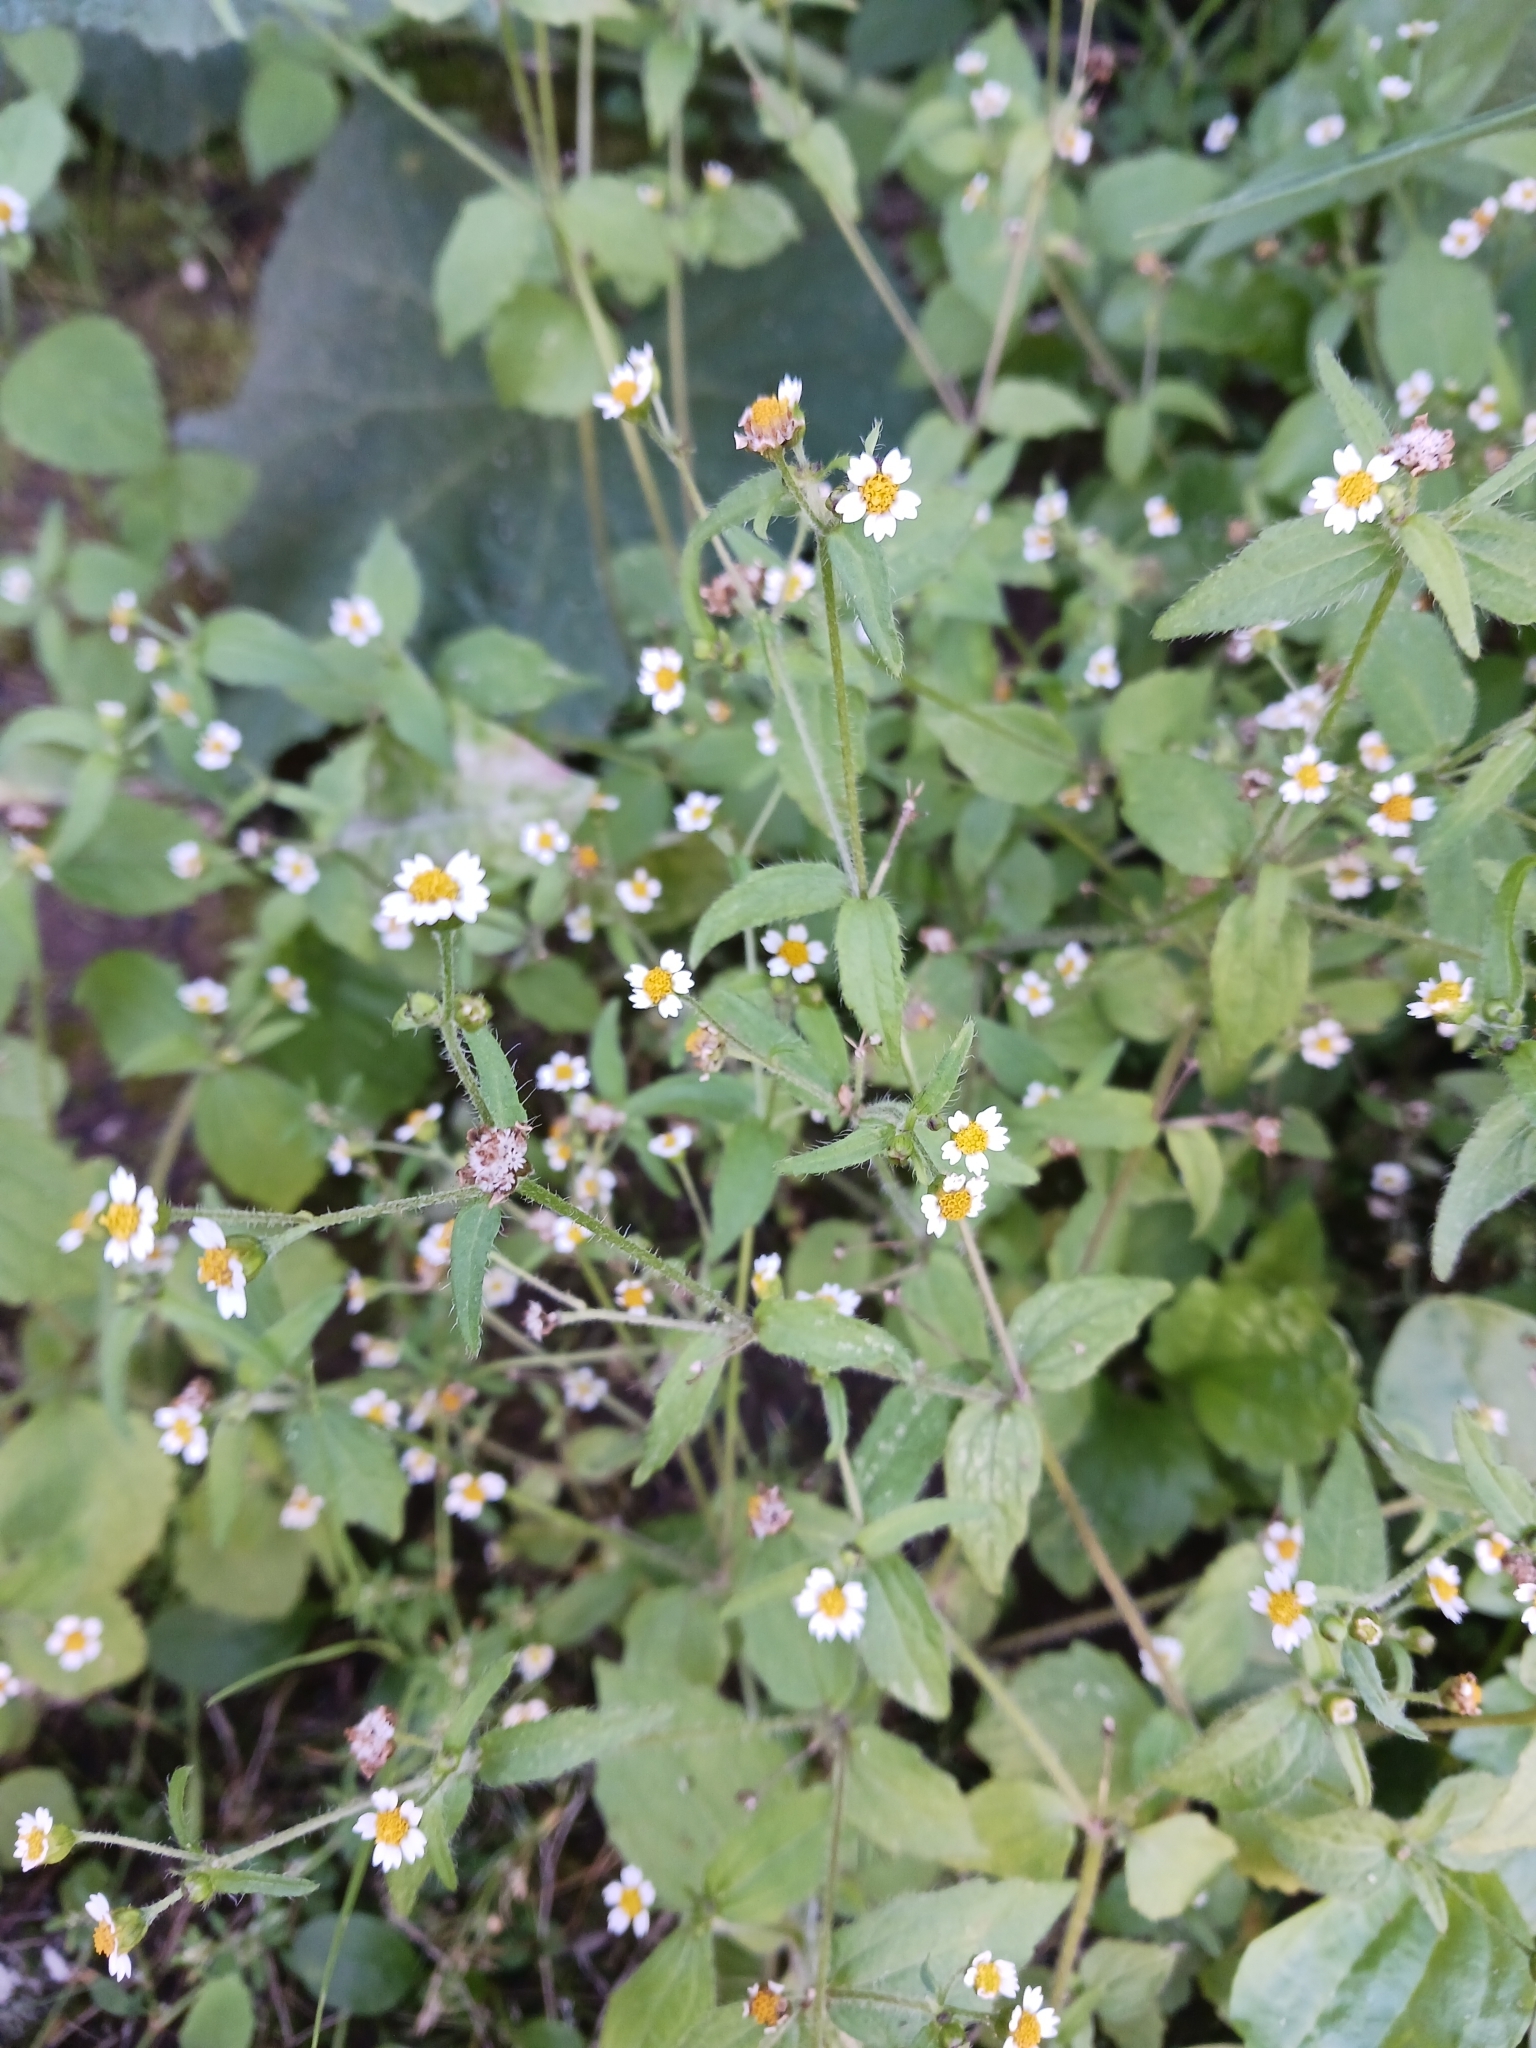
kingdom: Plantae
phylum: Tracheophyta
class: Magnoliopsida
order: Asterales
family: Asteraceae
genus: Galinsoga
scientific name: Galinsoga quadriradiata
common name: Shaggy soldier
